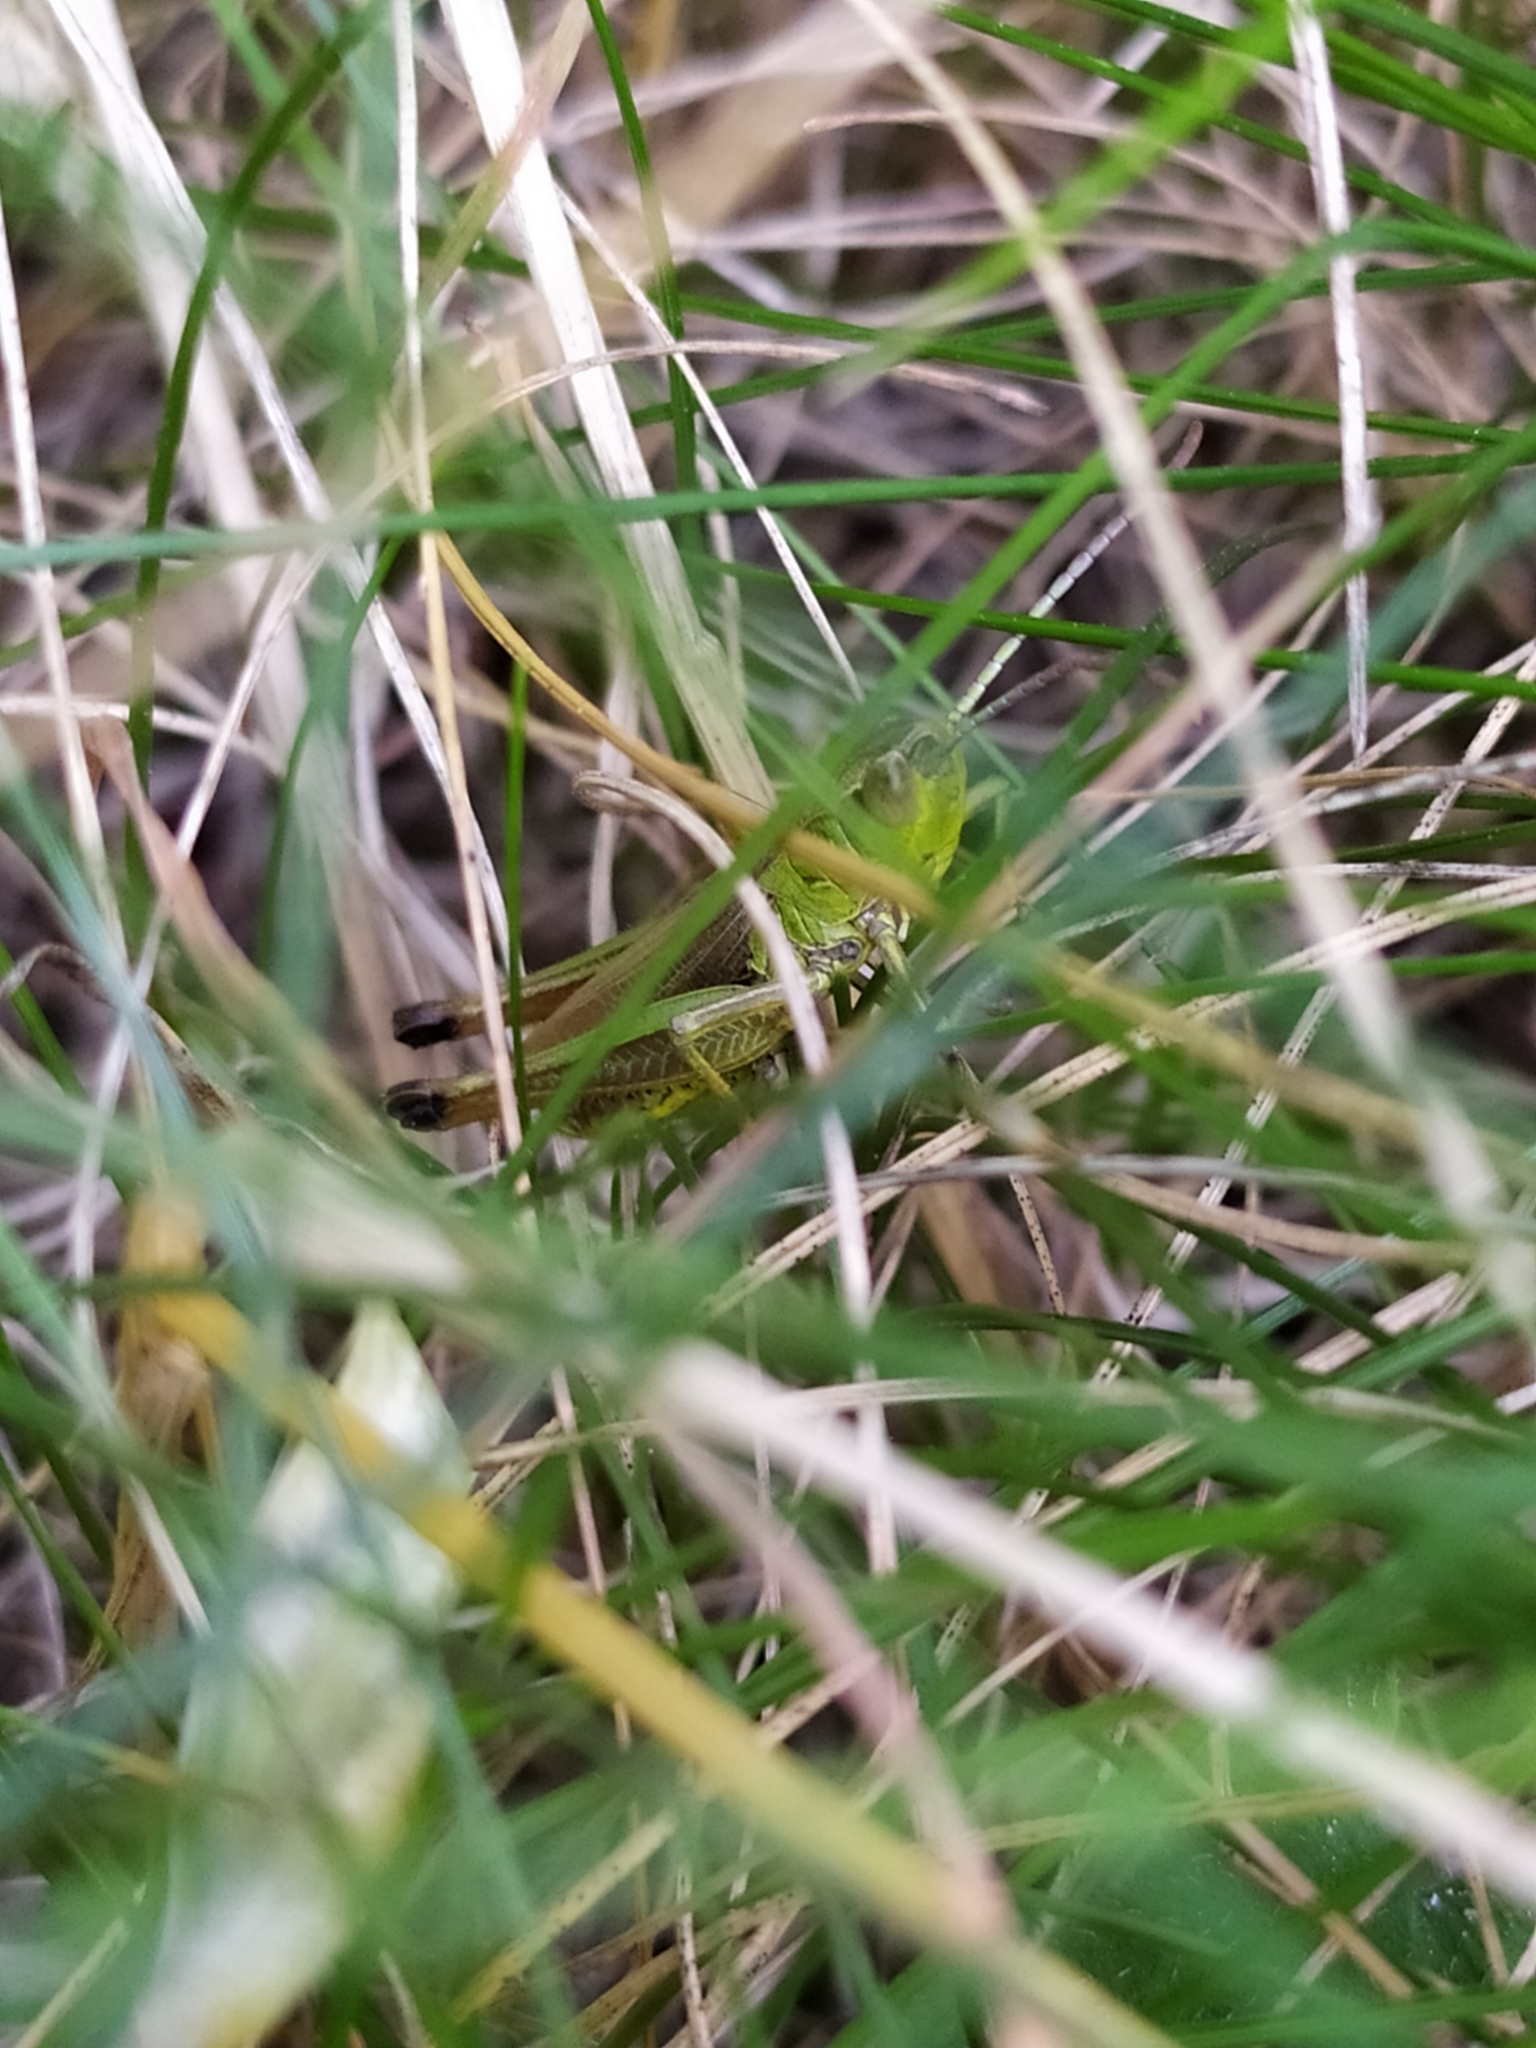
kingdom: Animalia
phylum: Arthropoda
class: Insecta
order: Orthoptera
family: Acrididae
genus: Pseudochorthippus
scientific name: Pseudochorthippus parallelus
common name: Meadow grasshopper
